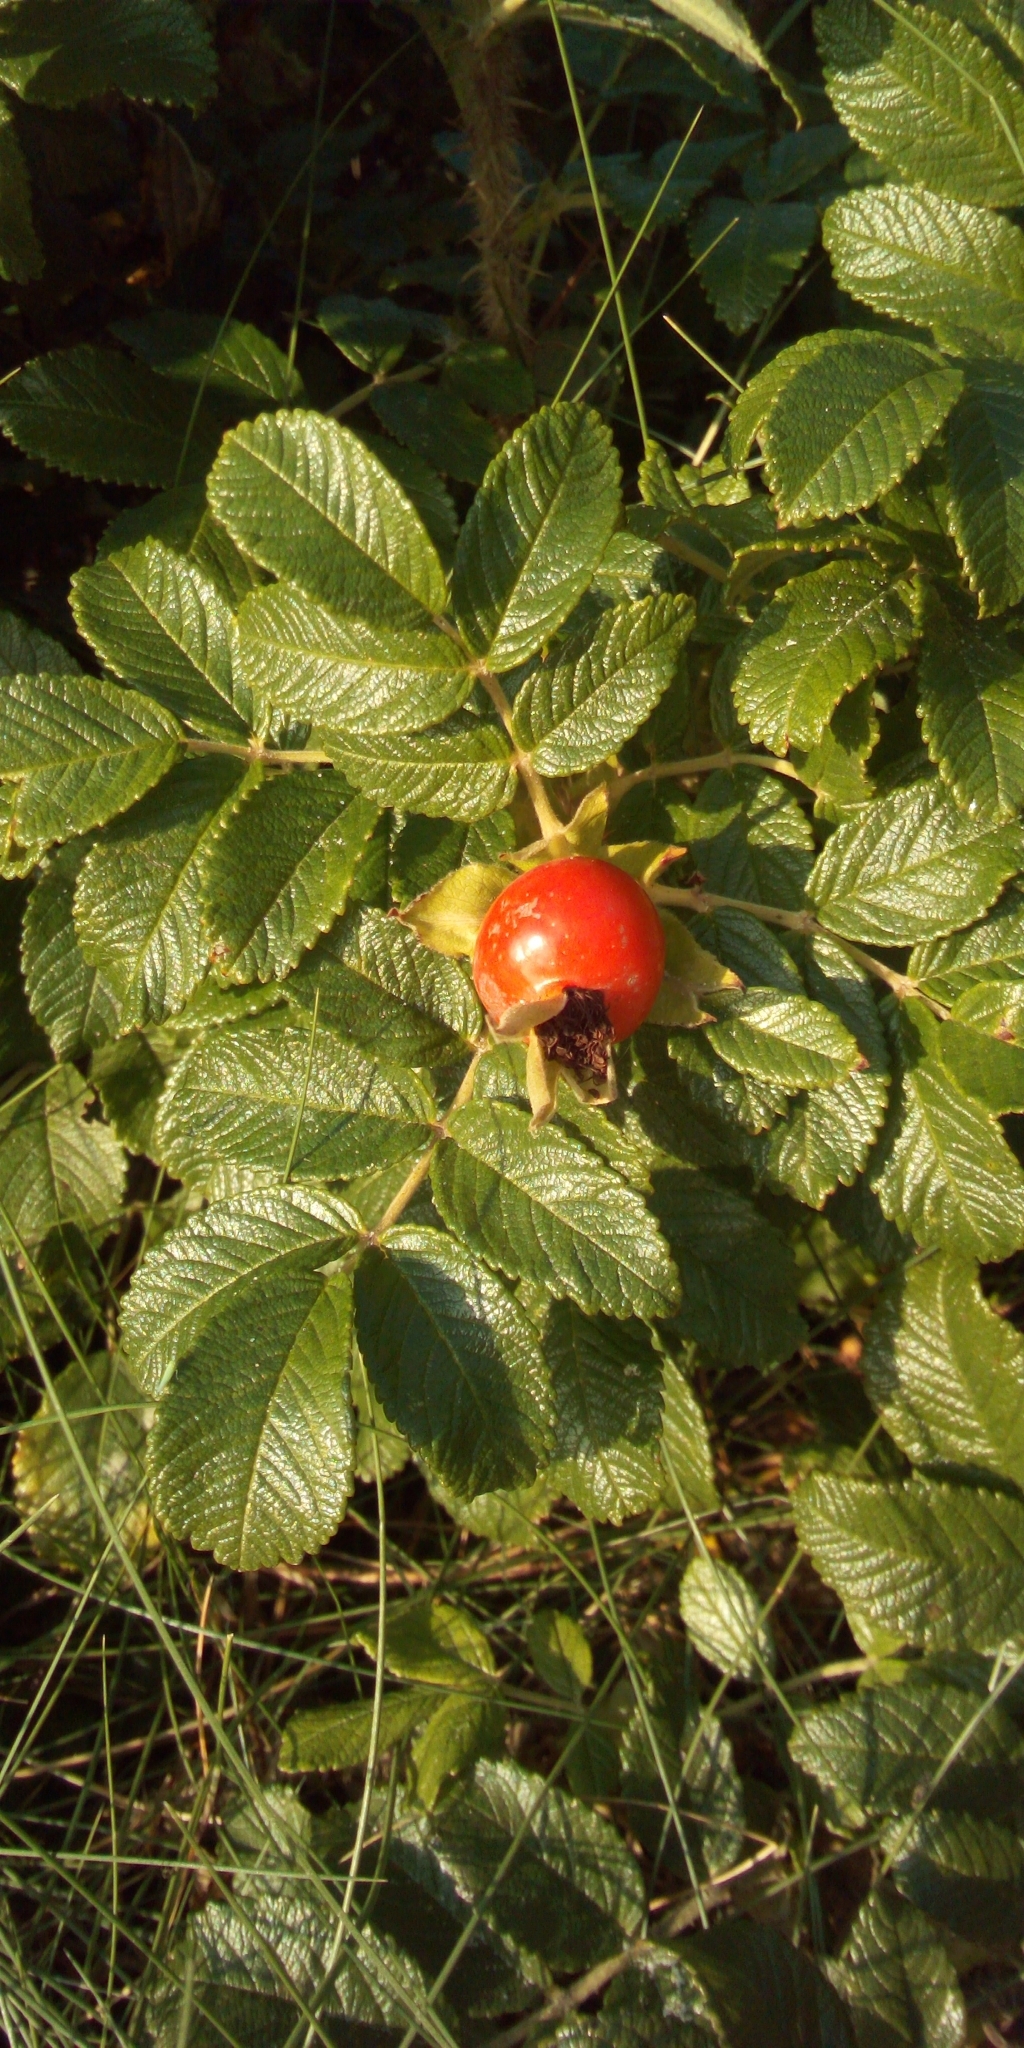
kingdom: Plantae
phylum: Tracheophyta
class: Magnoliopsida
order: Rosales
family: Rosaceae
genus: Rosa
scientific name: Rosa rugosa
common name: Japanese rose
